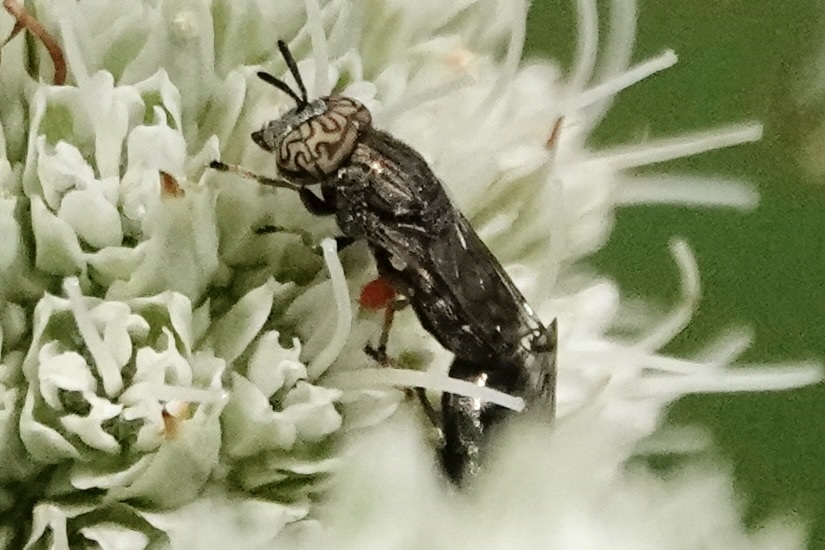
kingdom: Animalia
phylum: Arthropoda
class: Insecta
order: Diptera
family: Syrphidae
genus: Orthonevra
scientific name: Orthonevra nitida
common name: Wavy mucksucker
